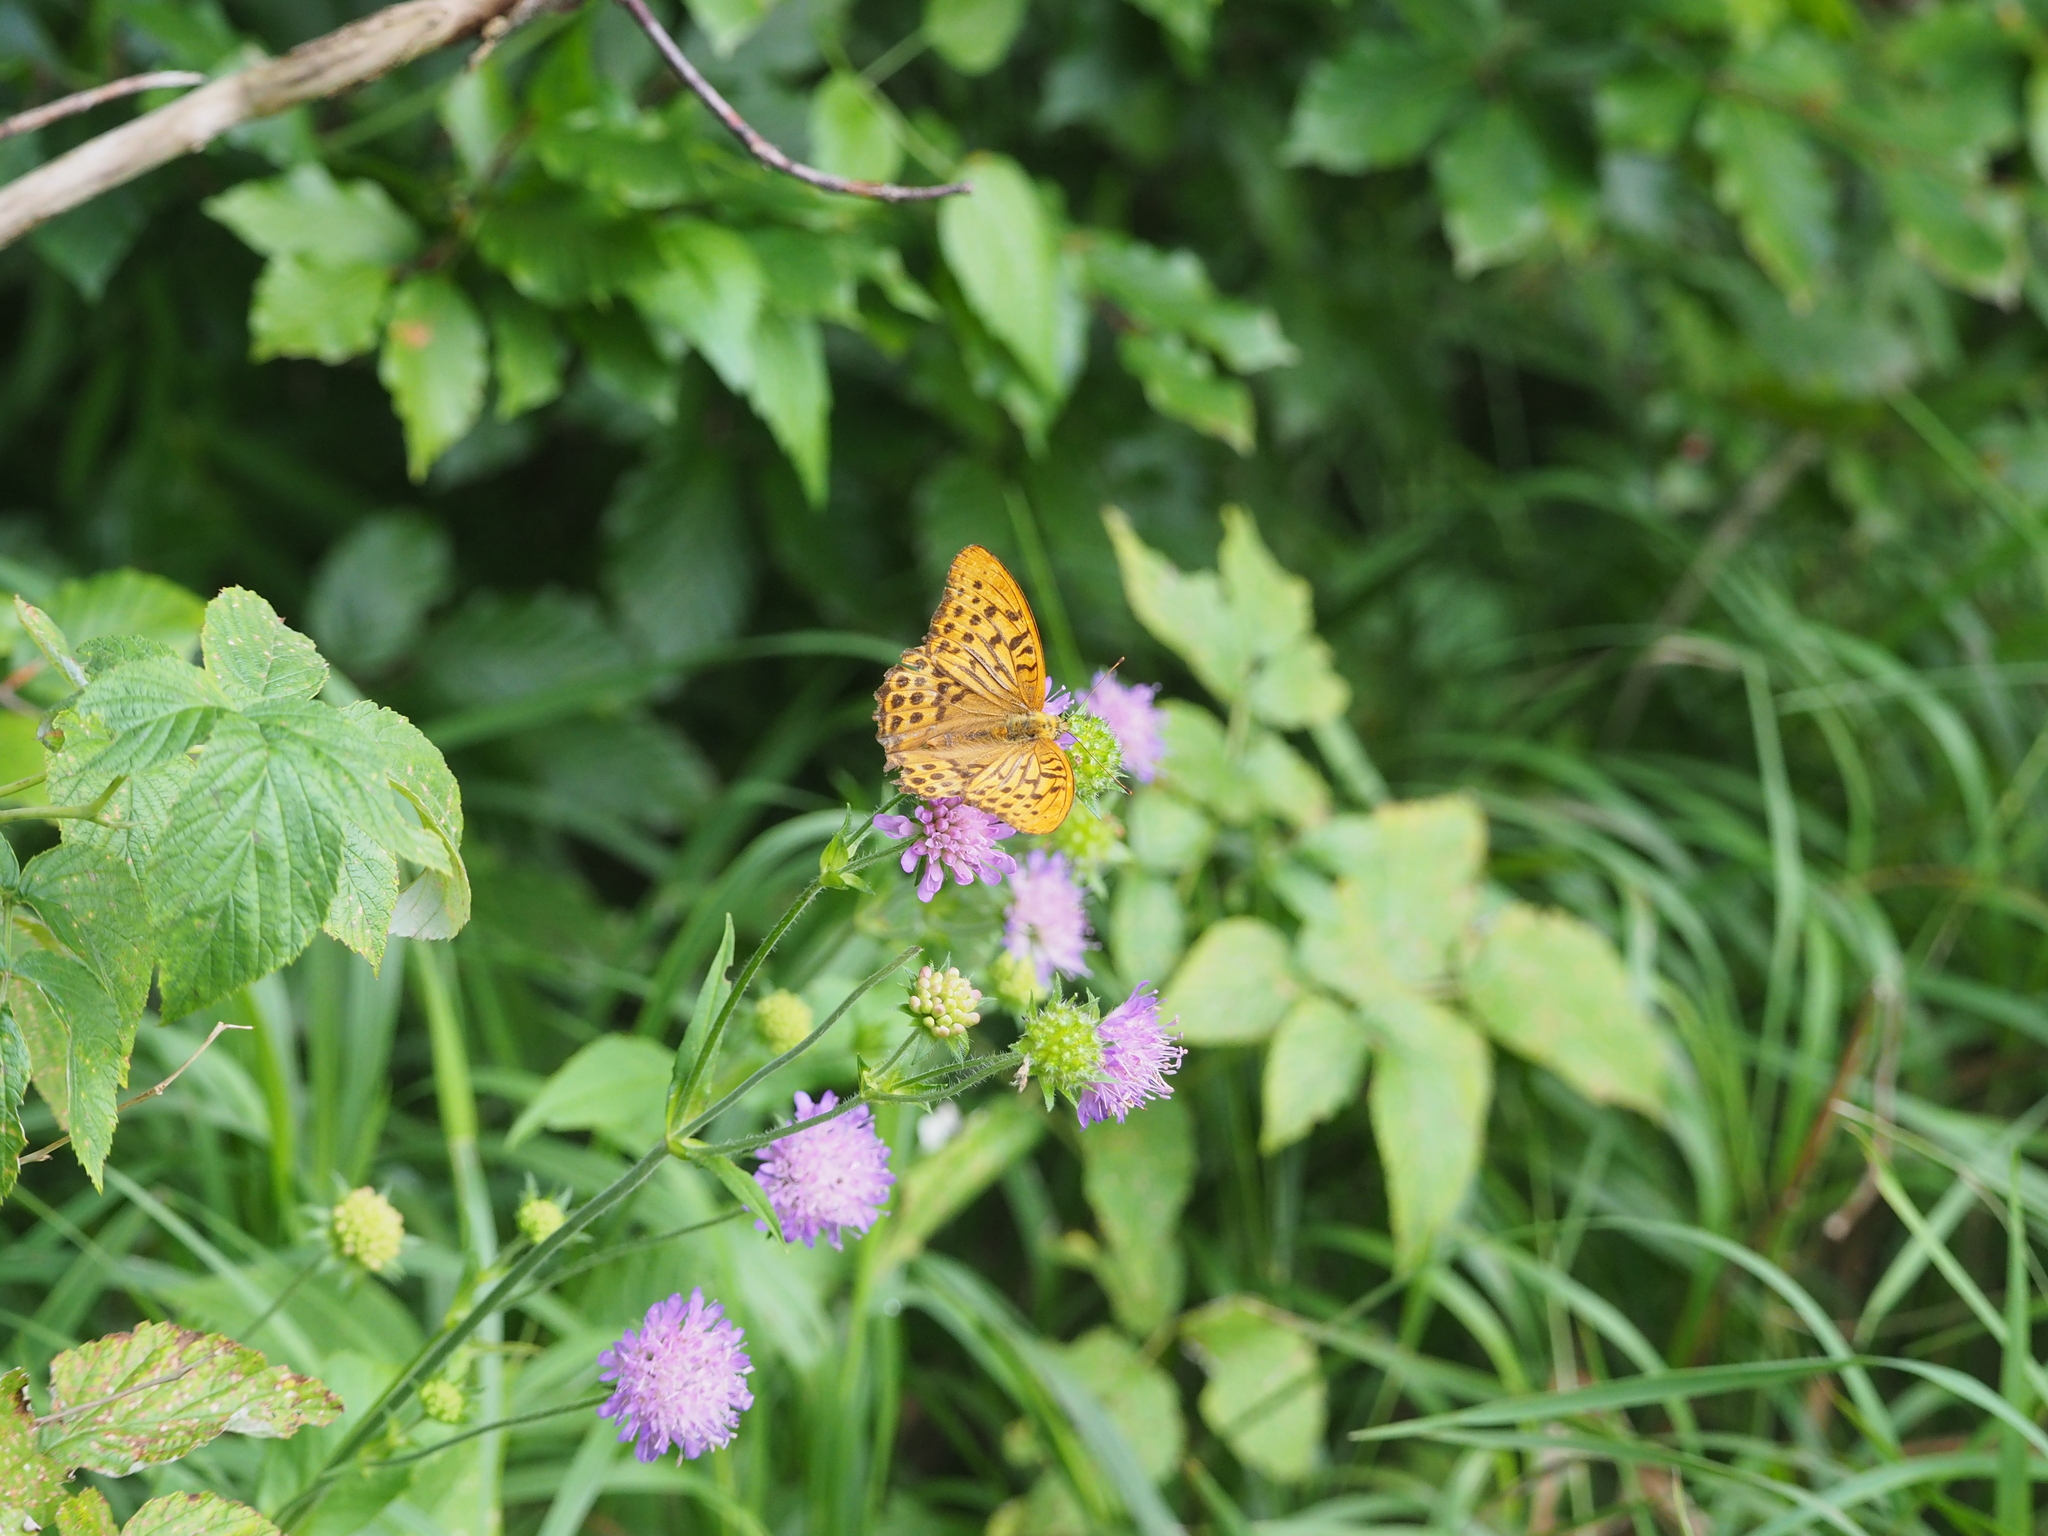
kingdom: Animalia
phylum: Arthropoda
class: Insecta
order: Lepidoptera
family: Nymphalidae
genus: Argynnis
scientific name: Argynnis paphia
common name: Silver-washed fritillary
